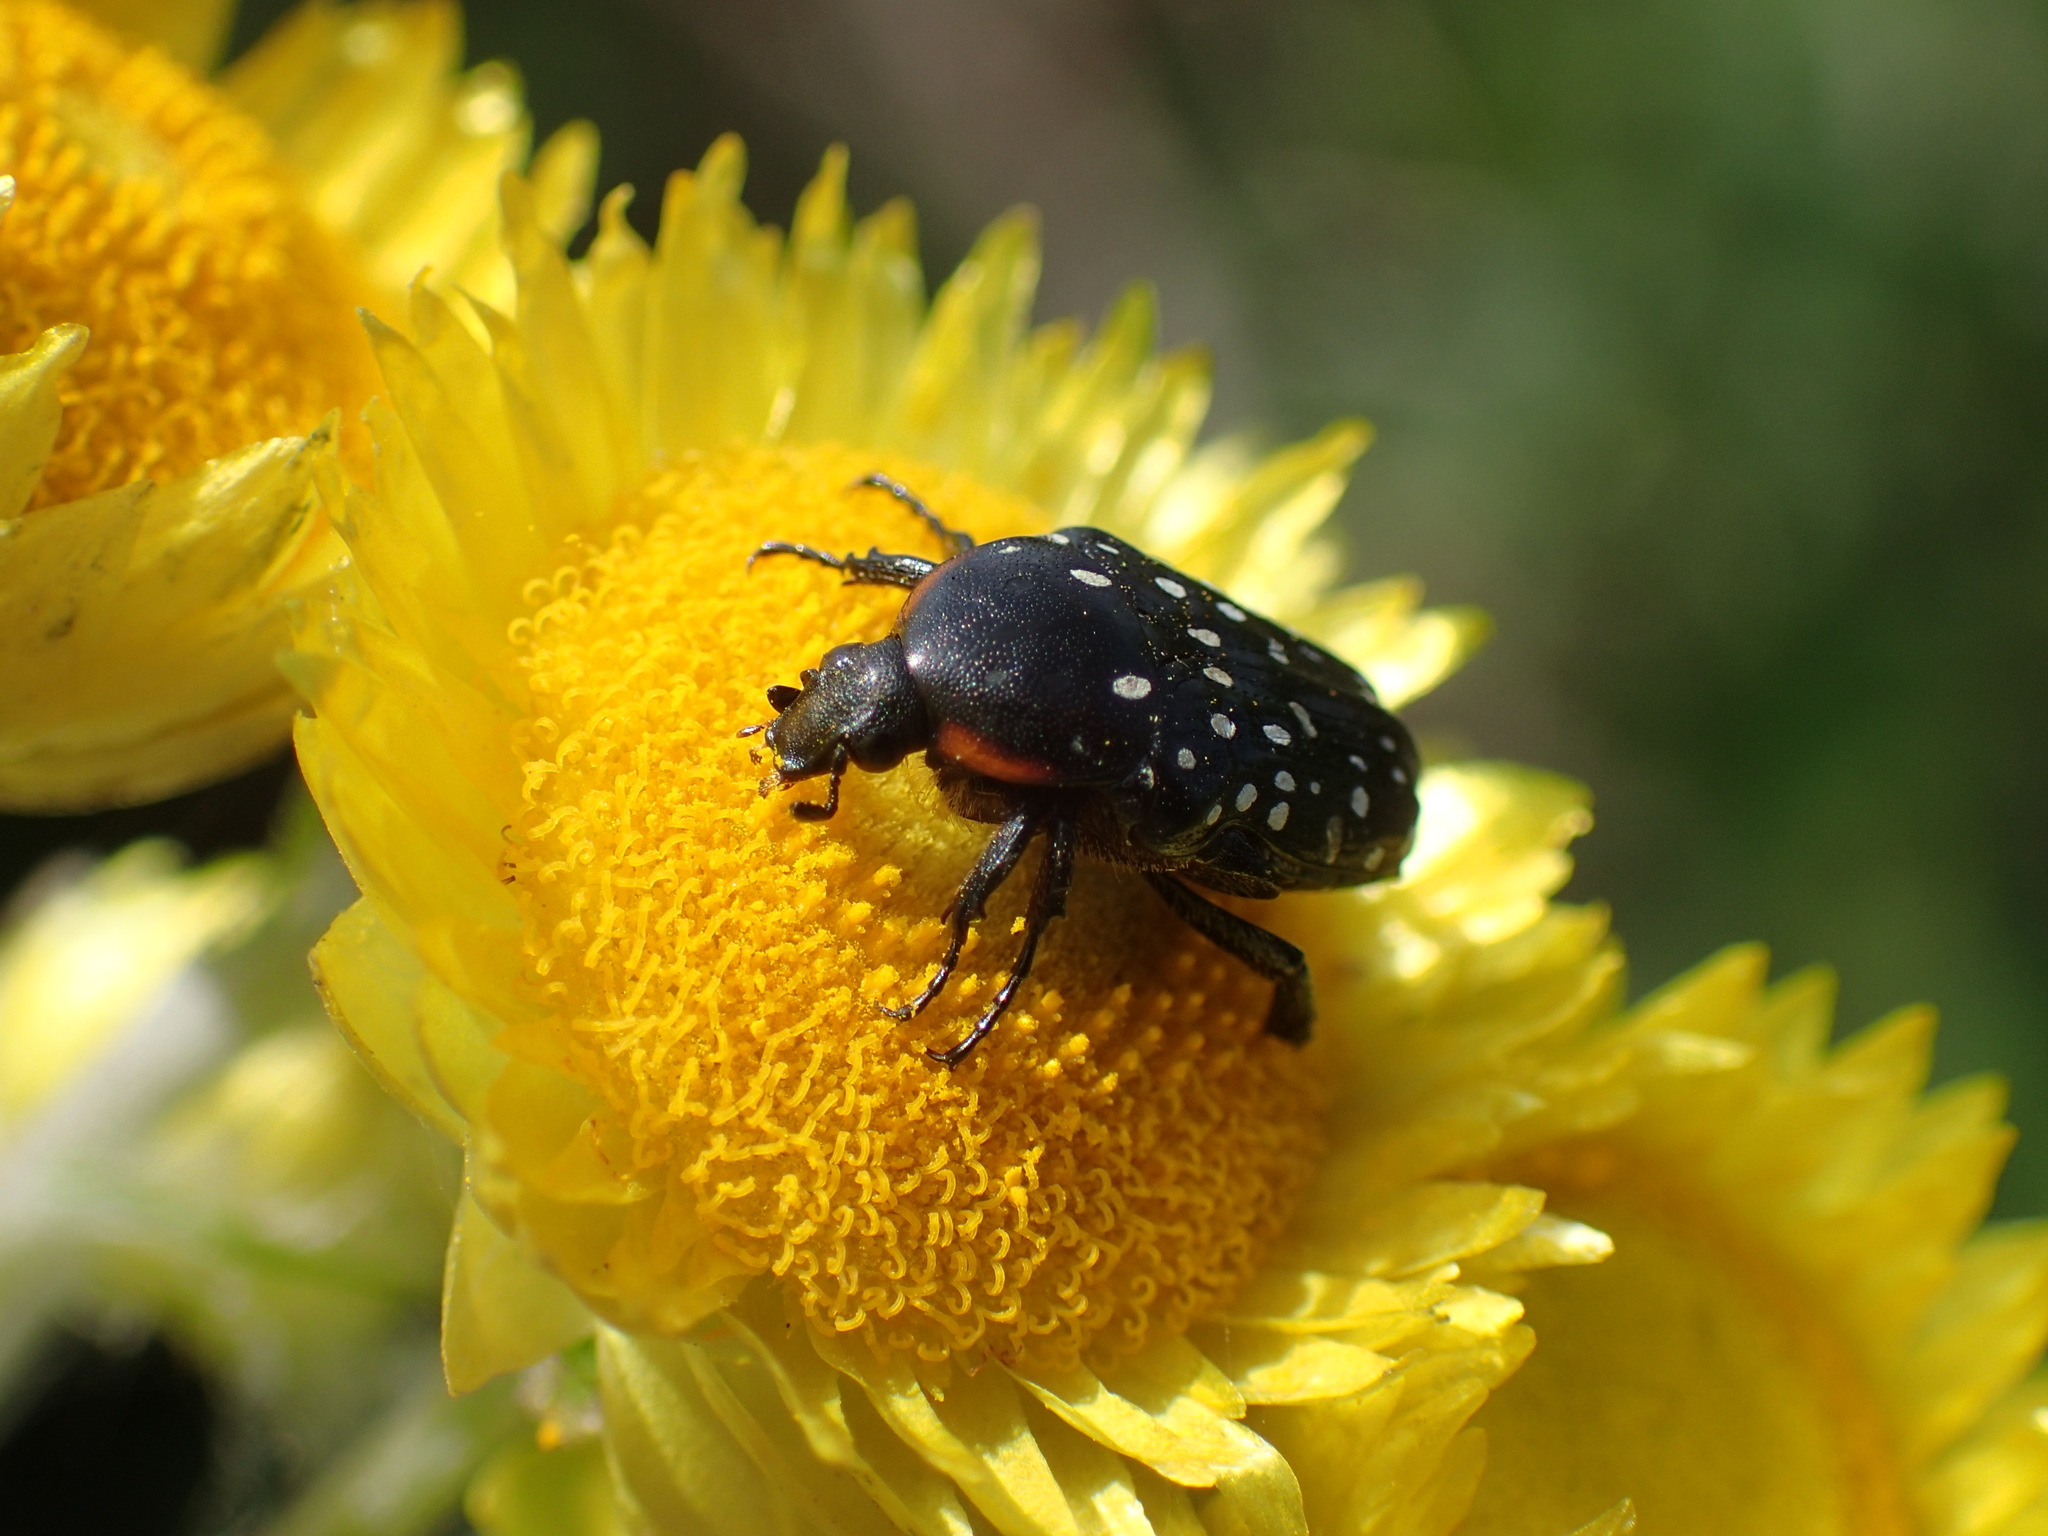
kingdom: Animalia
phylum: Arthropoda
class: Insecta
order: Coleoptera
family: Scarabaeidae
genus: Oxythyrea
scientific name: Oxythyrea
